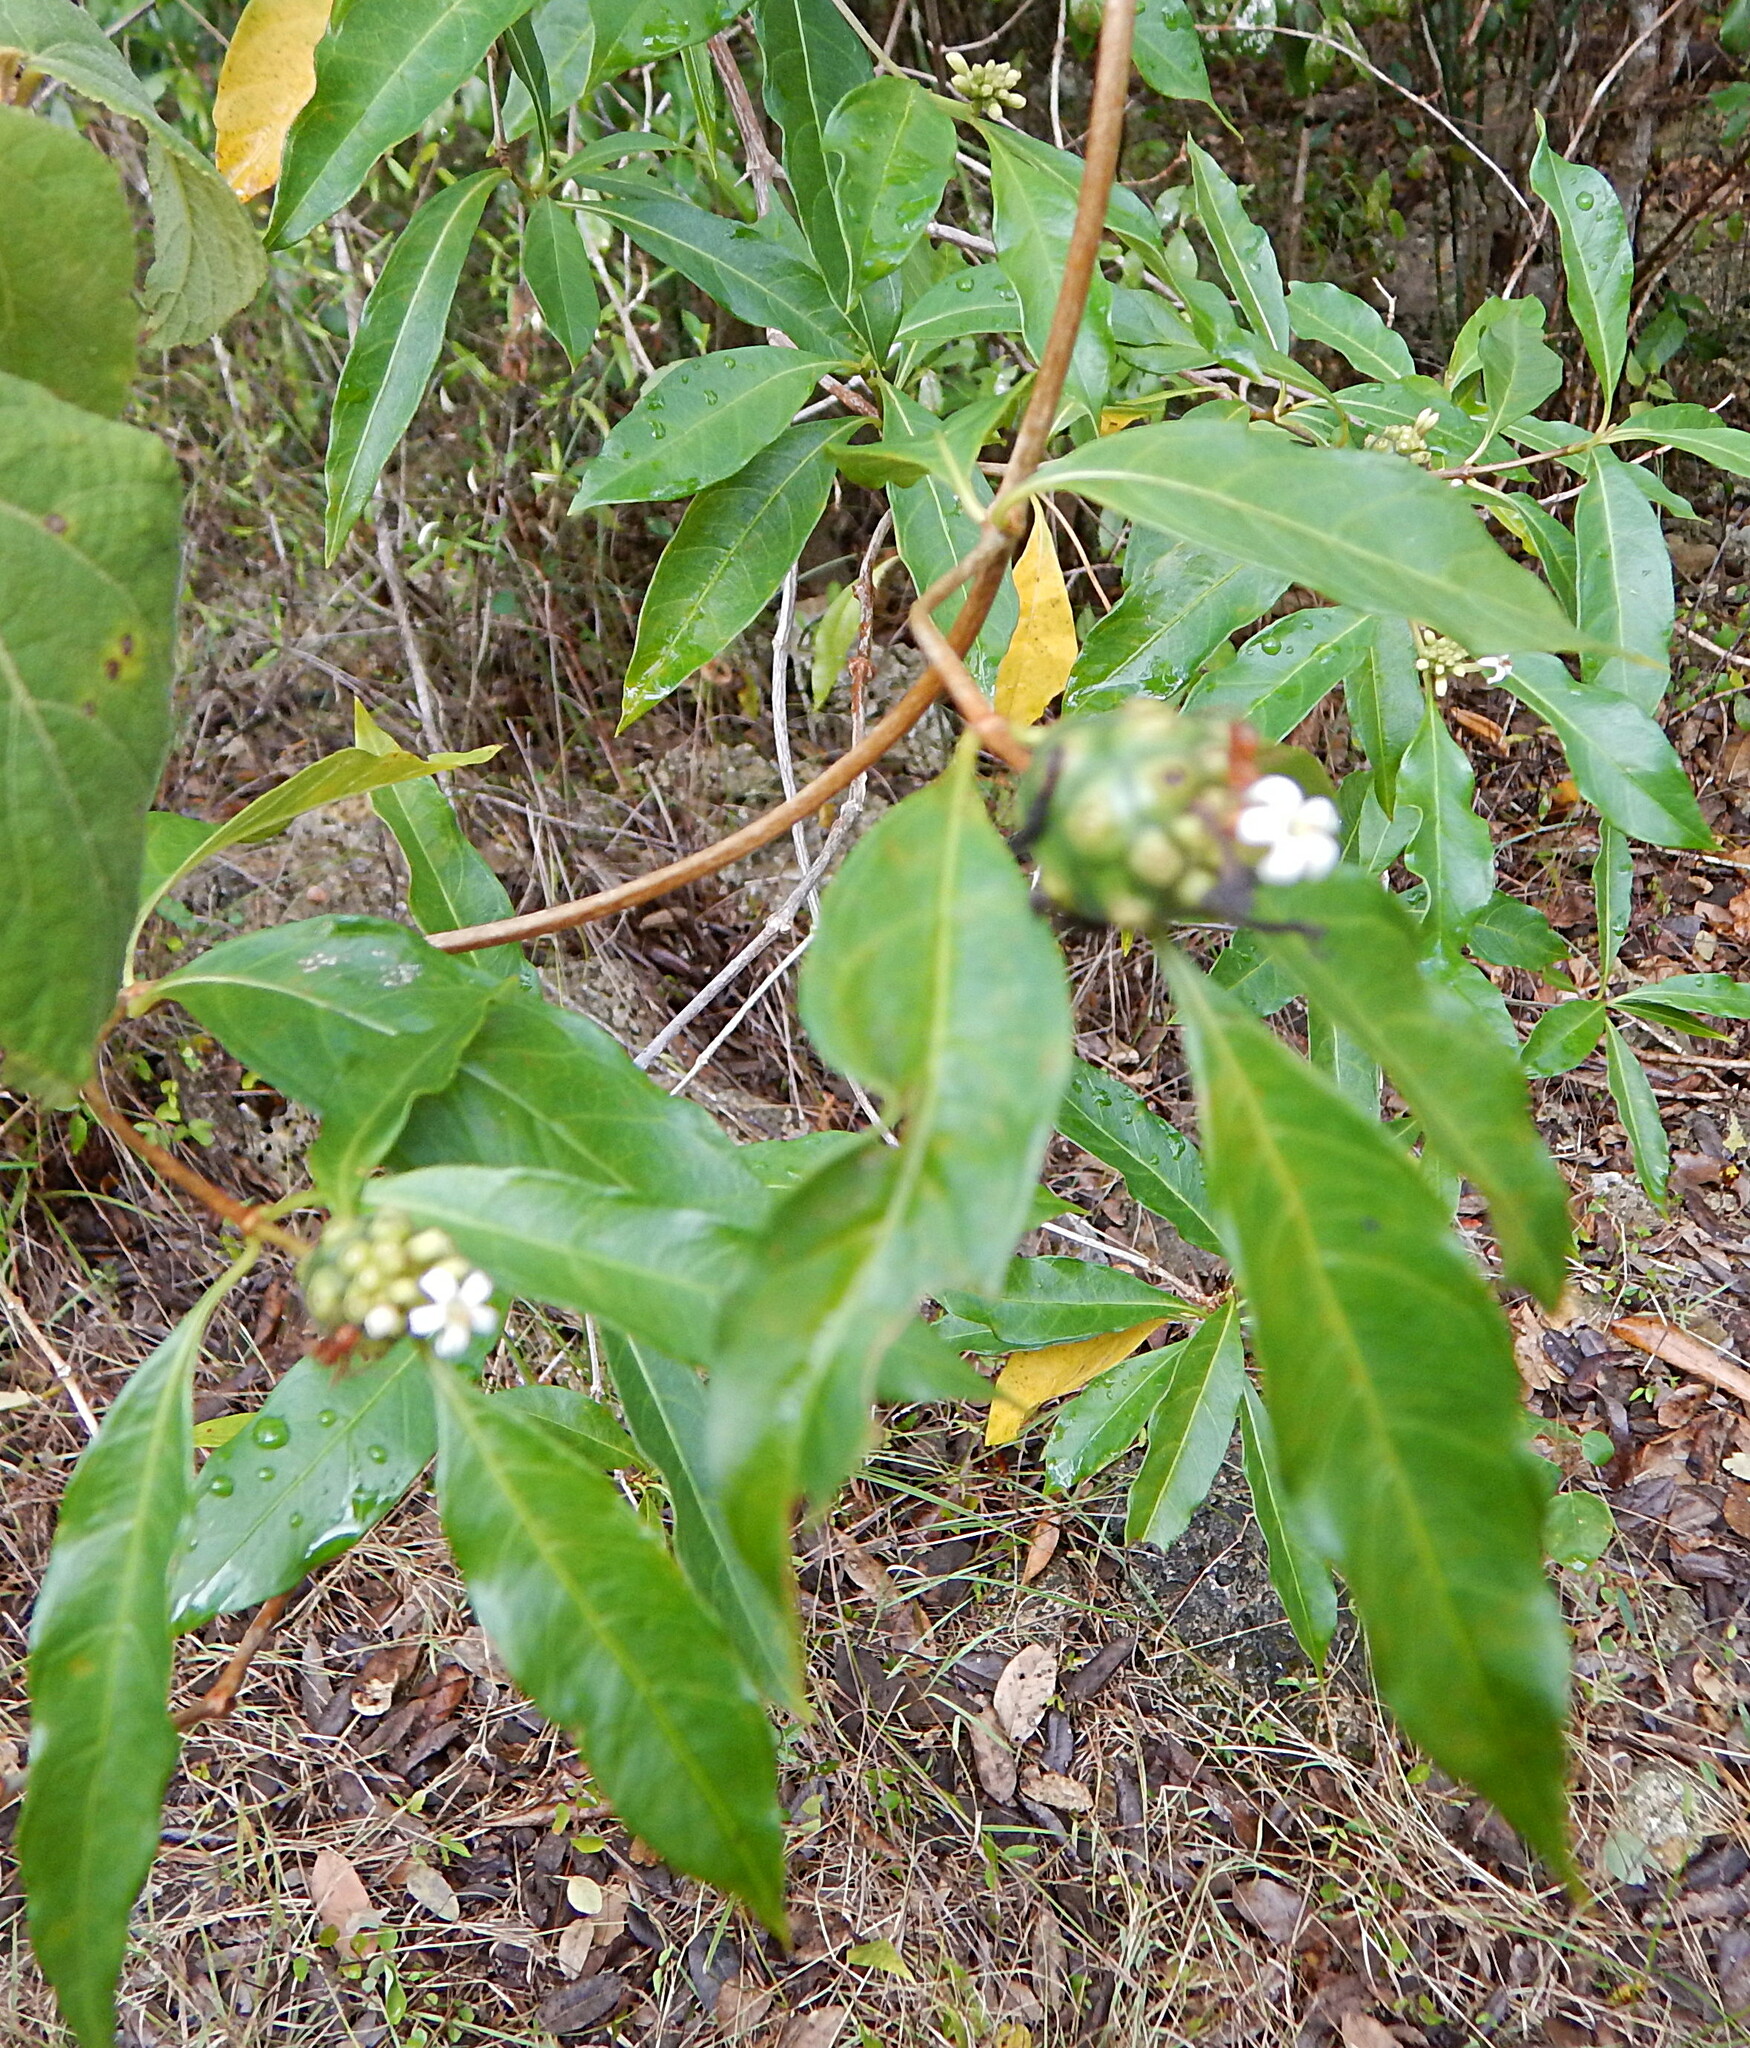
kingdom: Plantae
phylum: Tracheophyta
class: Magnoliopsida
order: Gentianales
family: Rubiaceae
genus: Morinda
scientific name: Morinda royoc
